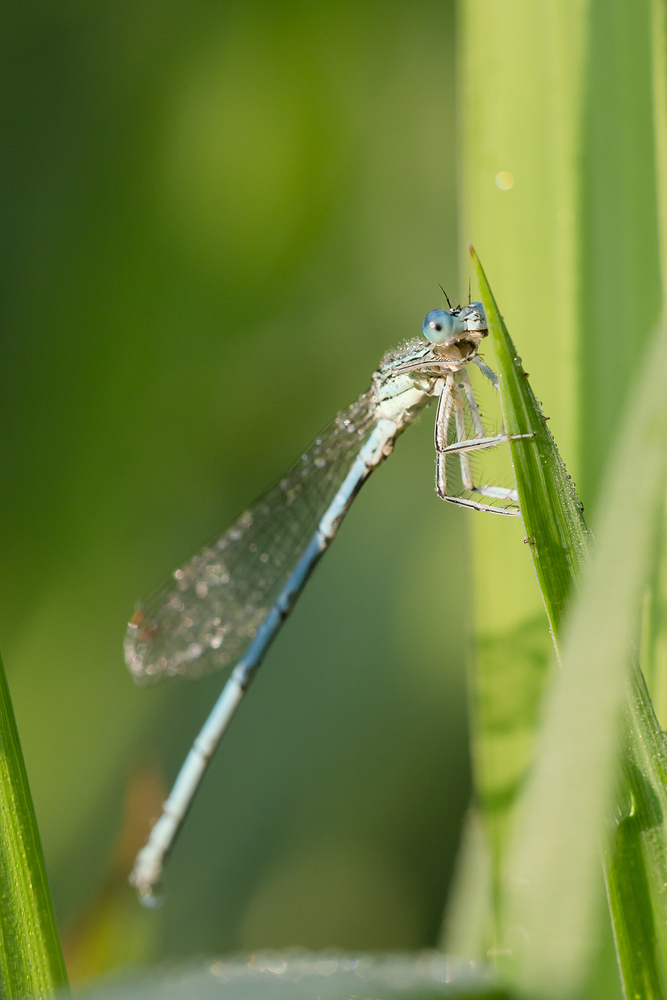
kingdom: Animalia
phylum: Arthropoda
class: Insecta
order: Odonata
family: Platycnemididae
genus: Platycnemis
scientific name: Platycnemis pennipes
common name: White-legged damselfly
